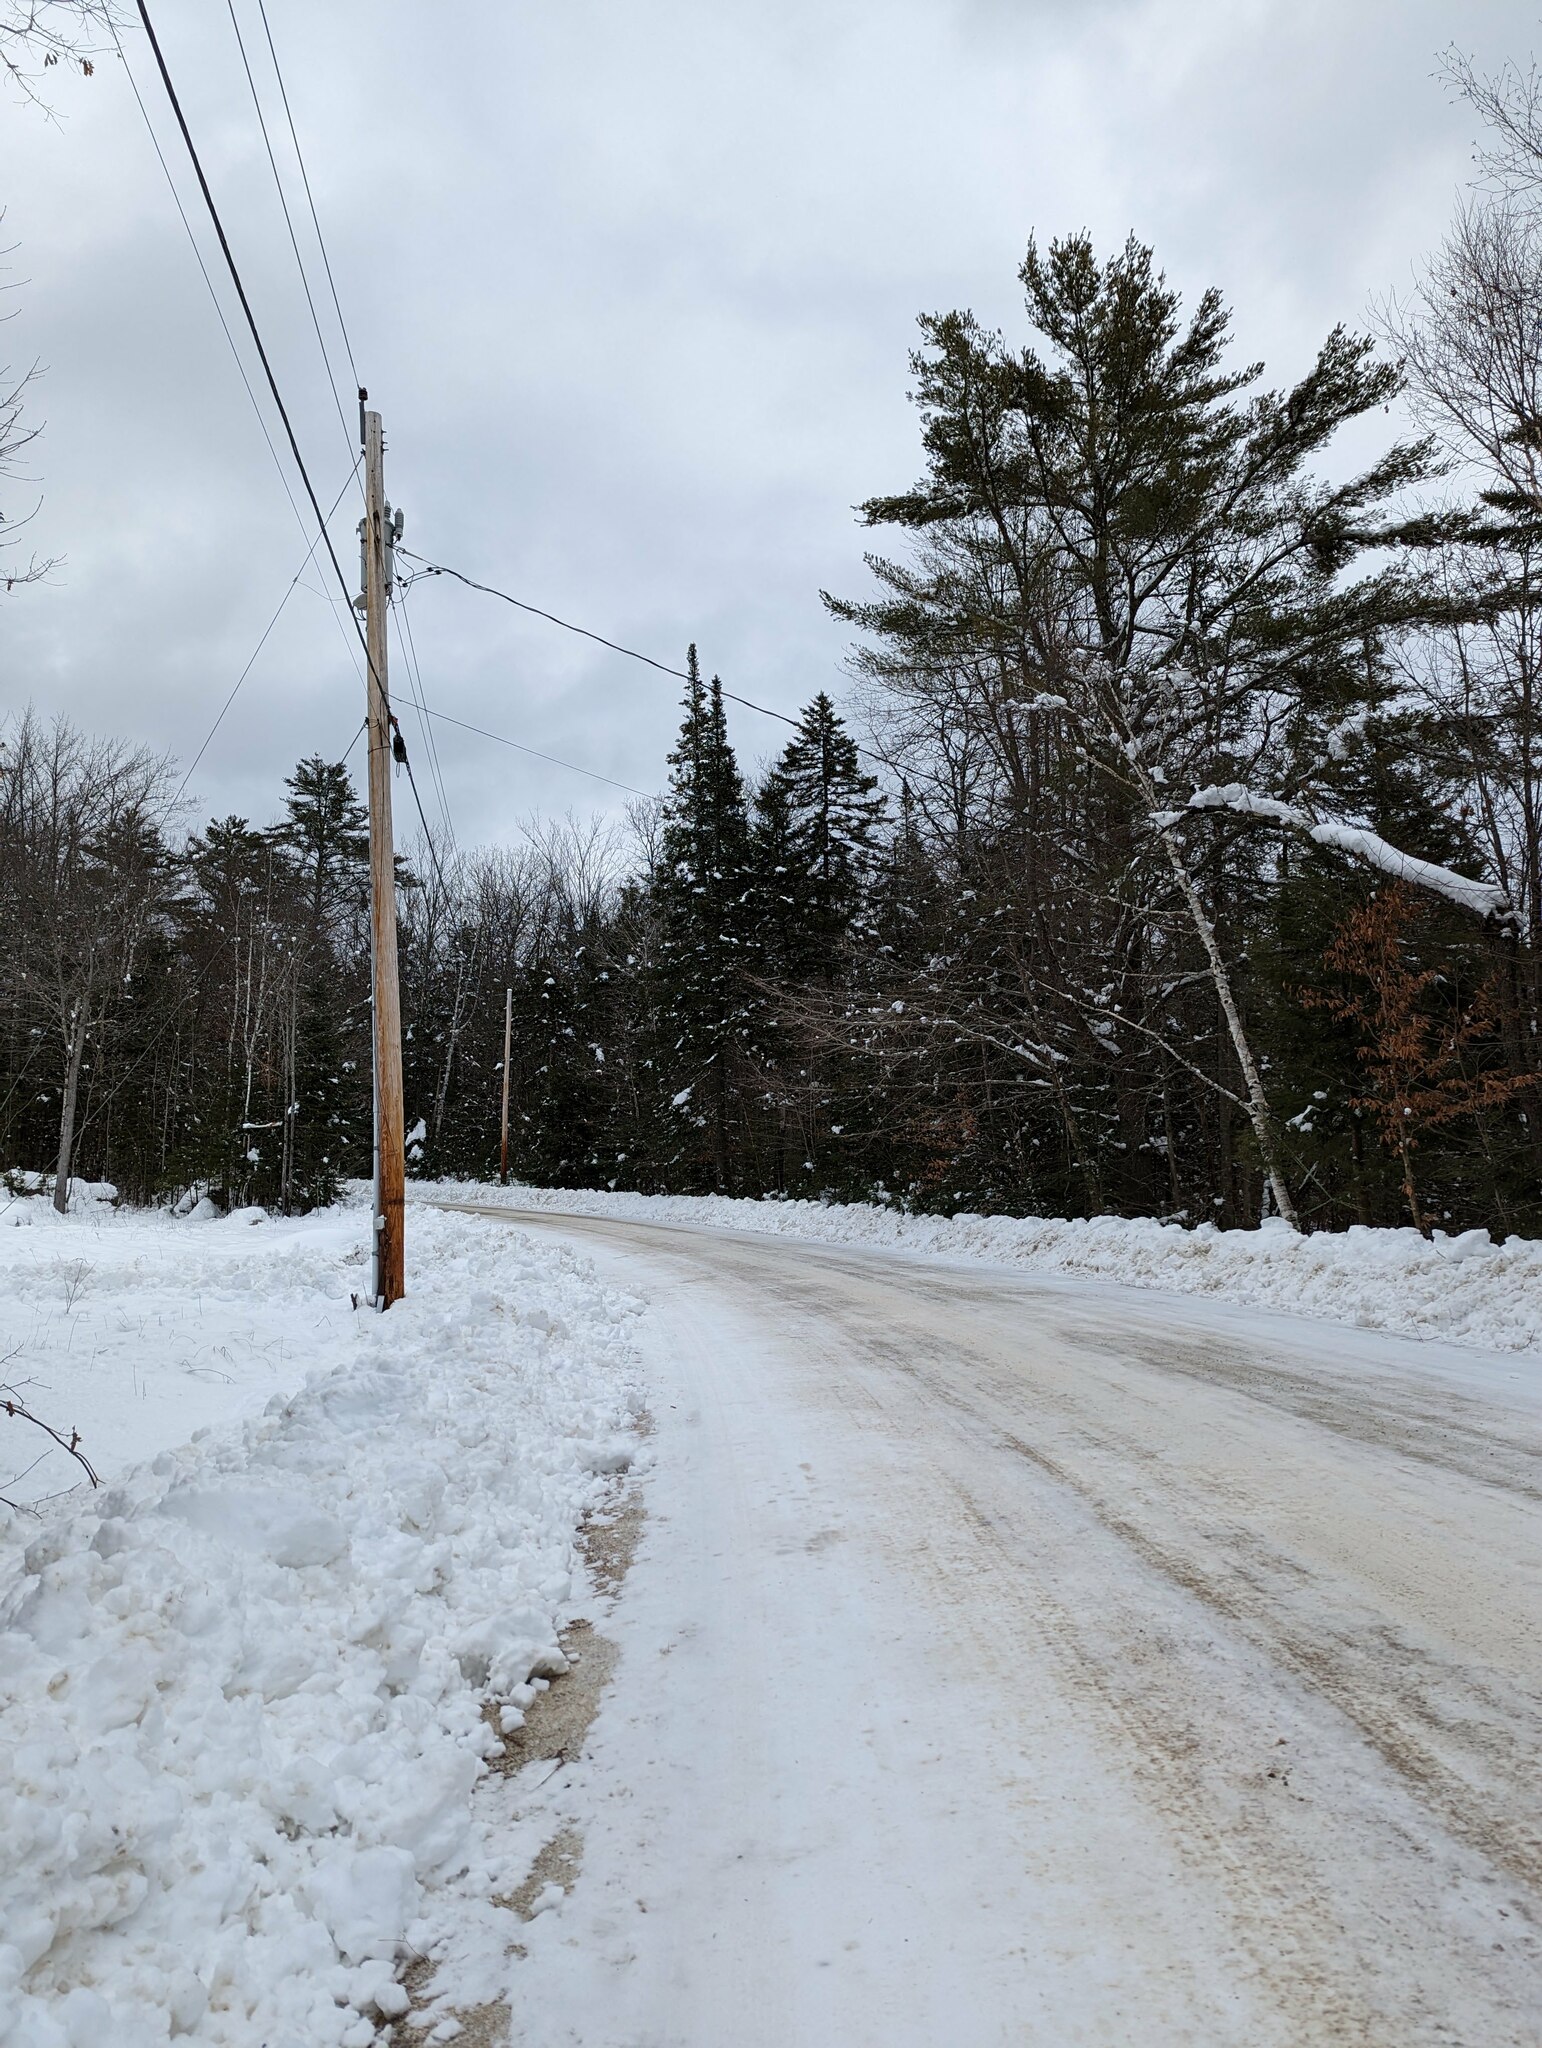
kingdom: Plantae
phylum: Tracheophyta
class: Pinopsida
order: Pinales
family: Pinaceae
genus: Pinus
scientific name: Pinus strobus
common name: Weymouth pine
